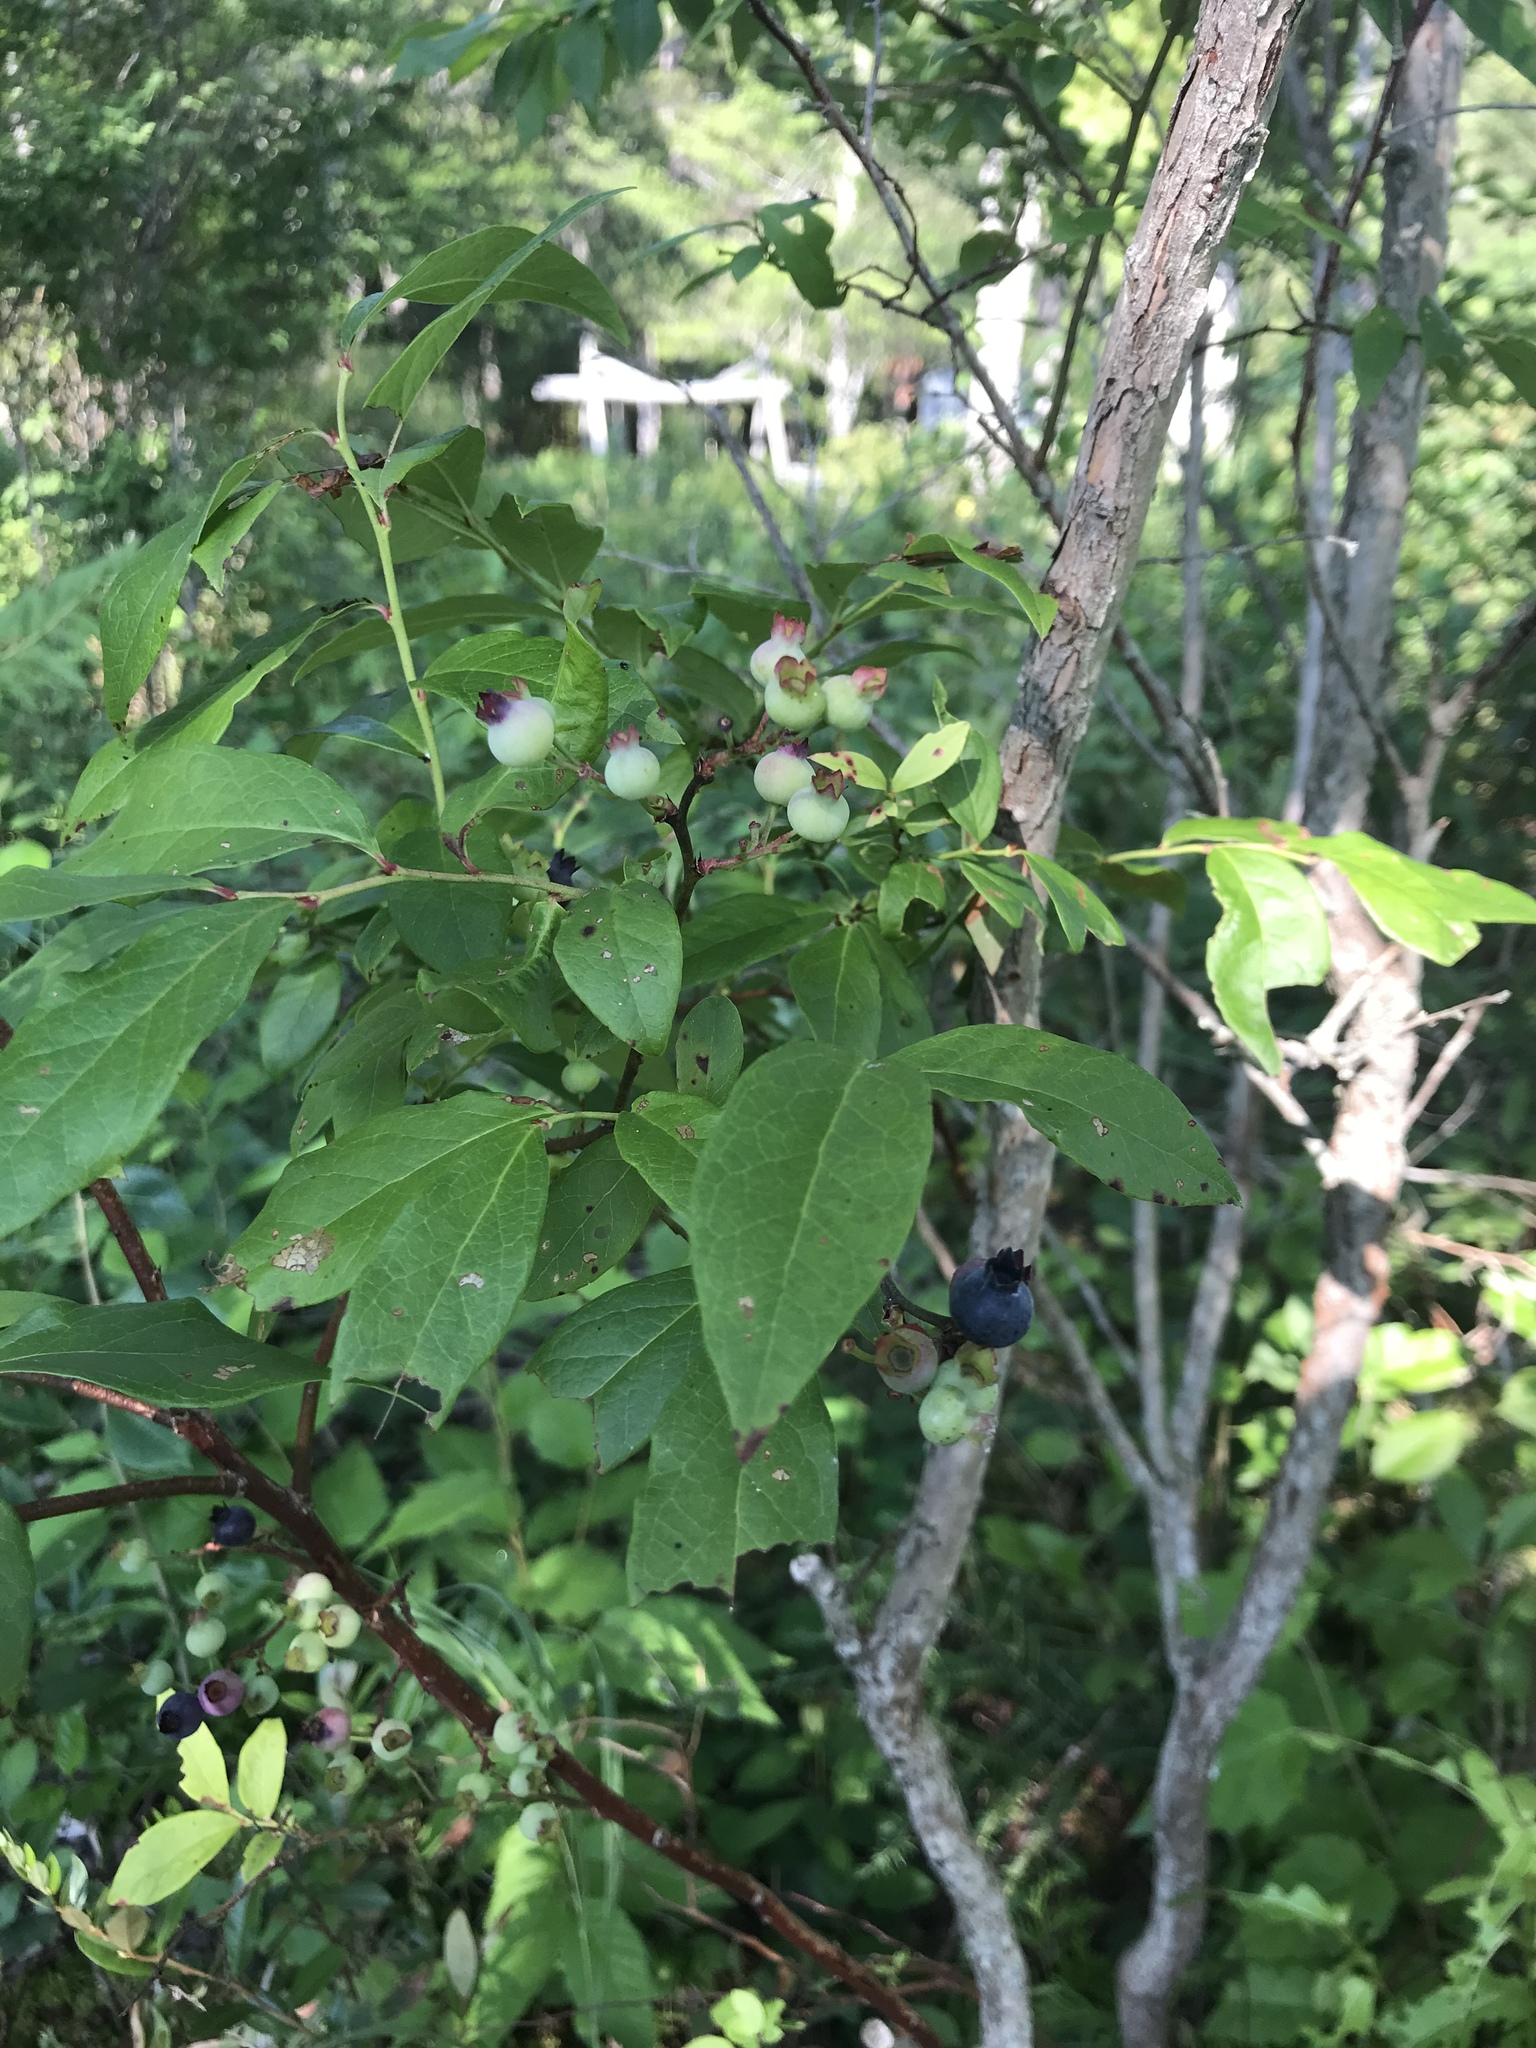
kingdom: Plantae
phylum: Tracheophyta
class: Magnoliopsida
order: Ericales
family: Ericaceae
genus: Vaccinium
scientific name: Vaccinium corymbosum
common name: Blueberry
